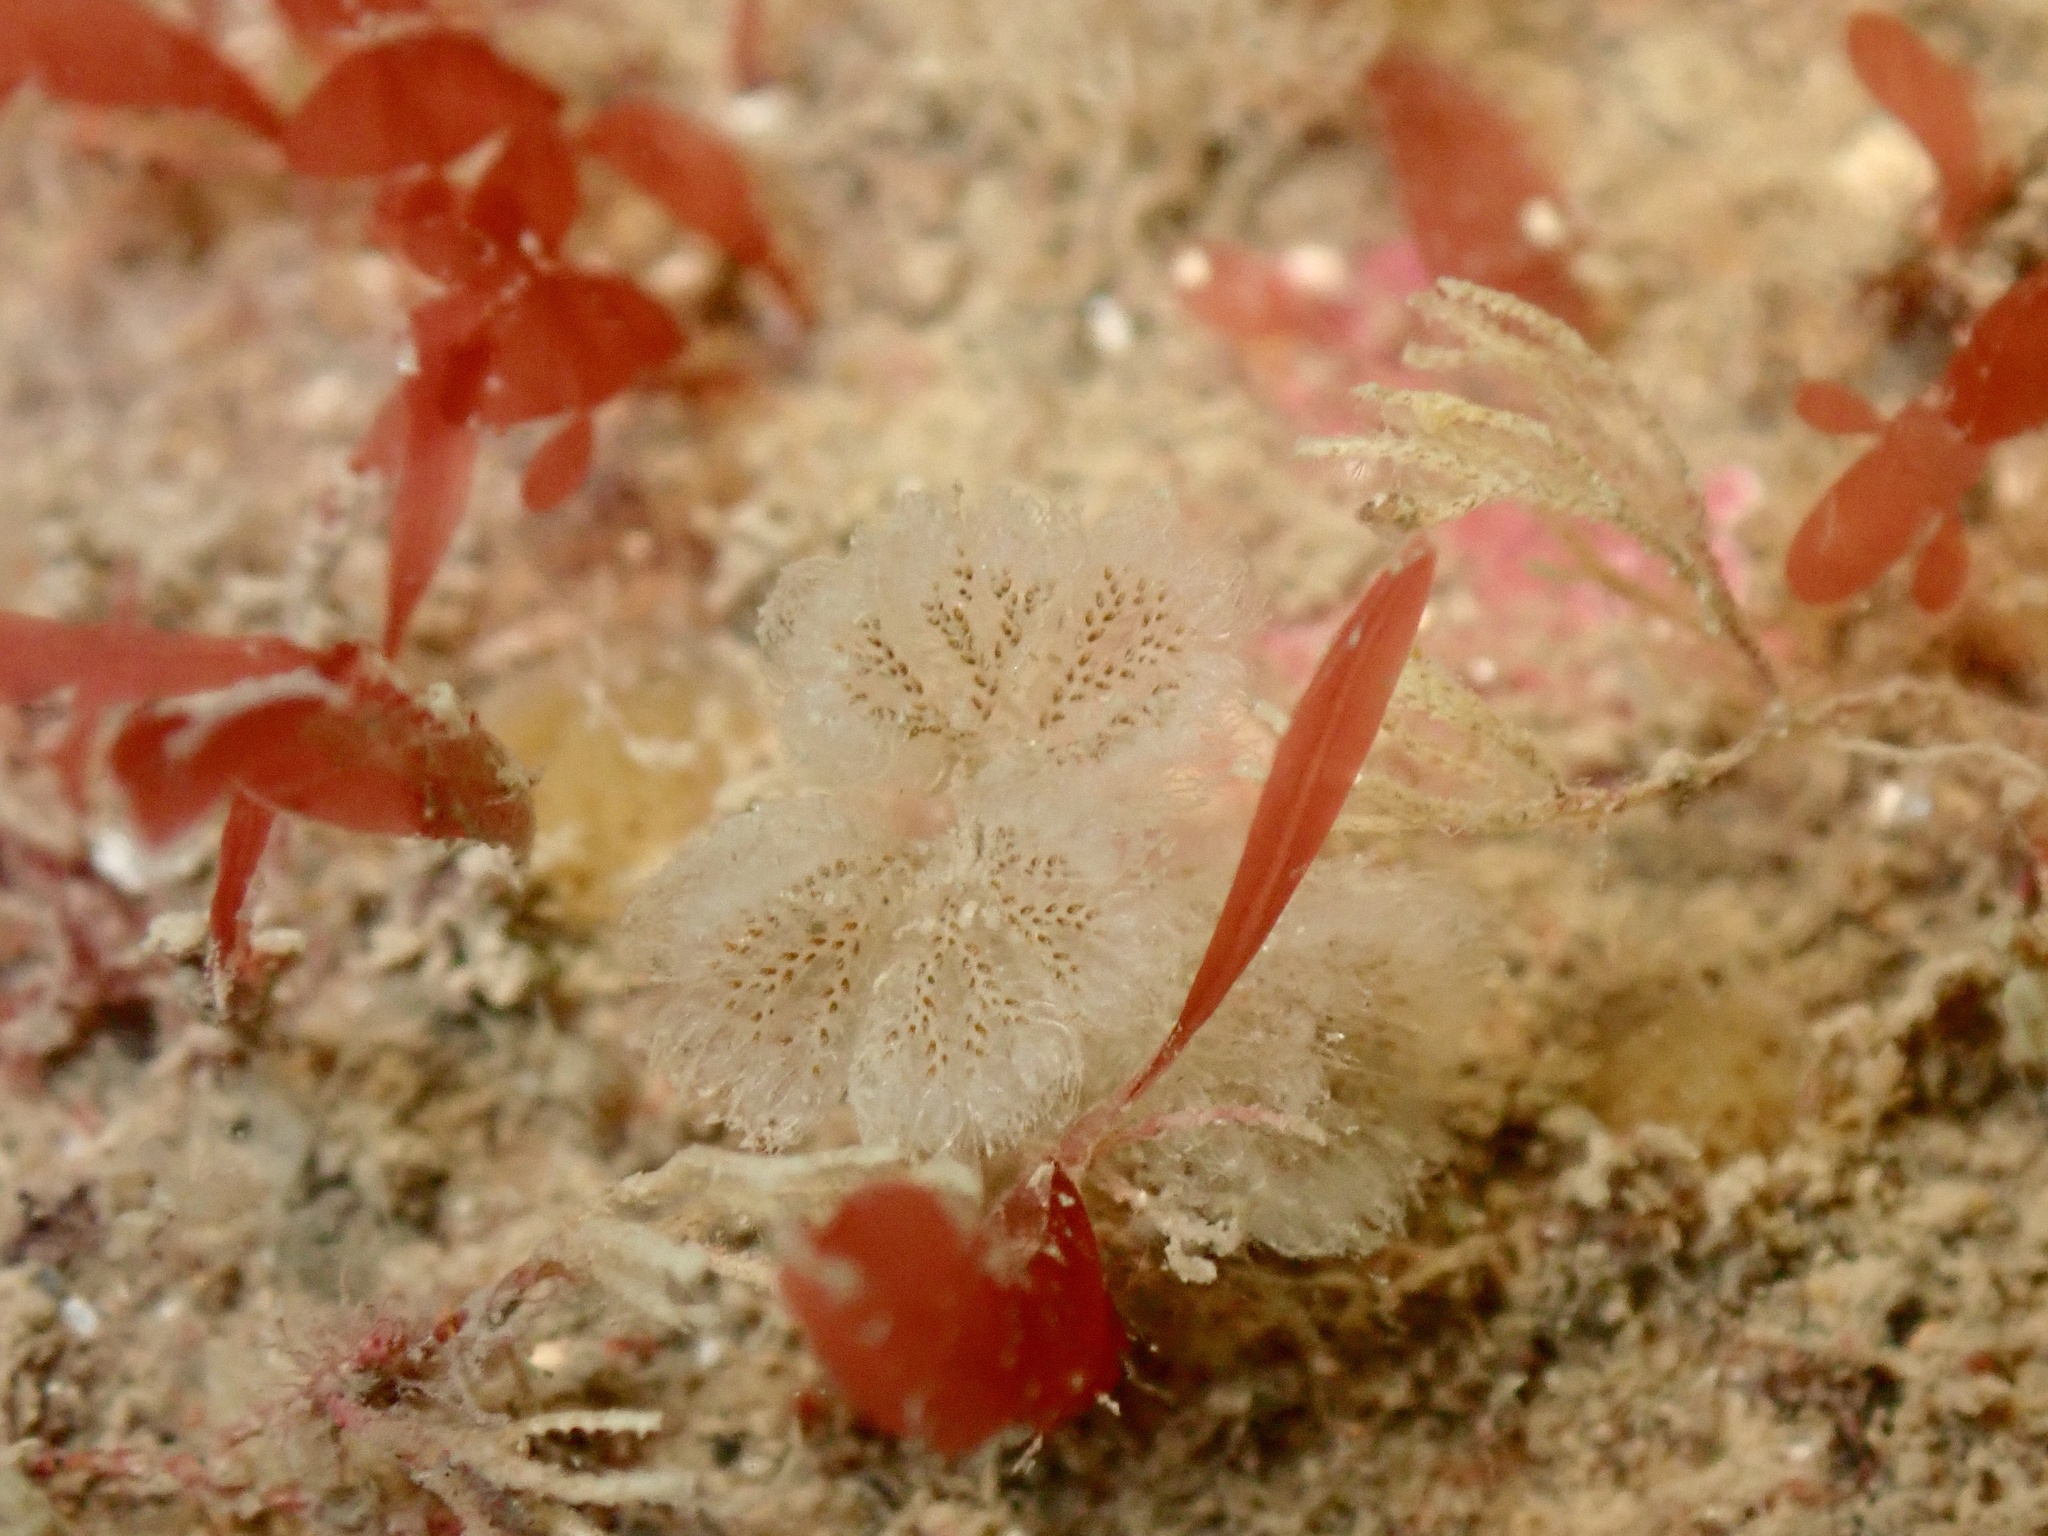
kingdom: Animalia
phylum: Bryozoa
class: Gymnolaemata
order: Cheilostomatida
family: Bugulidae
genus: Bicellariella
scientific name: Bicellariella ciliata
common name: Furry bryozoan
